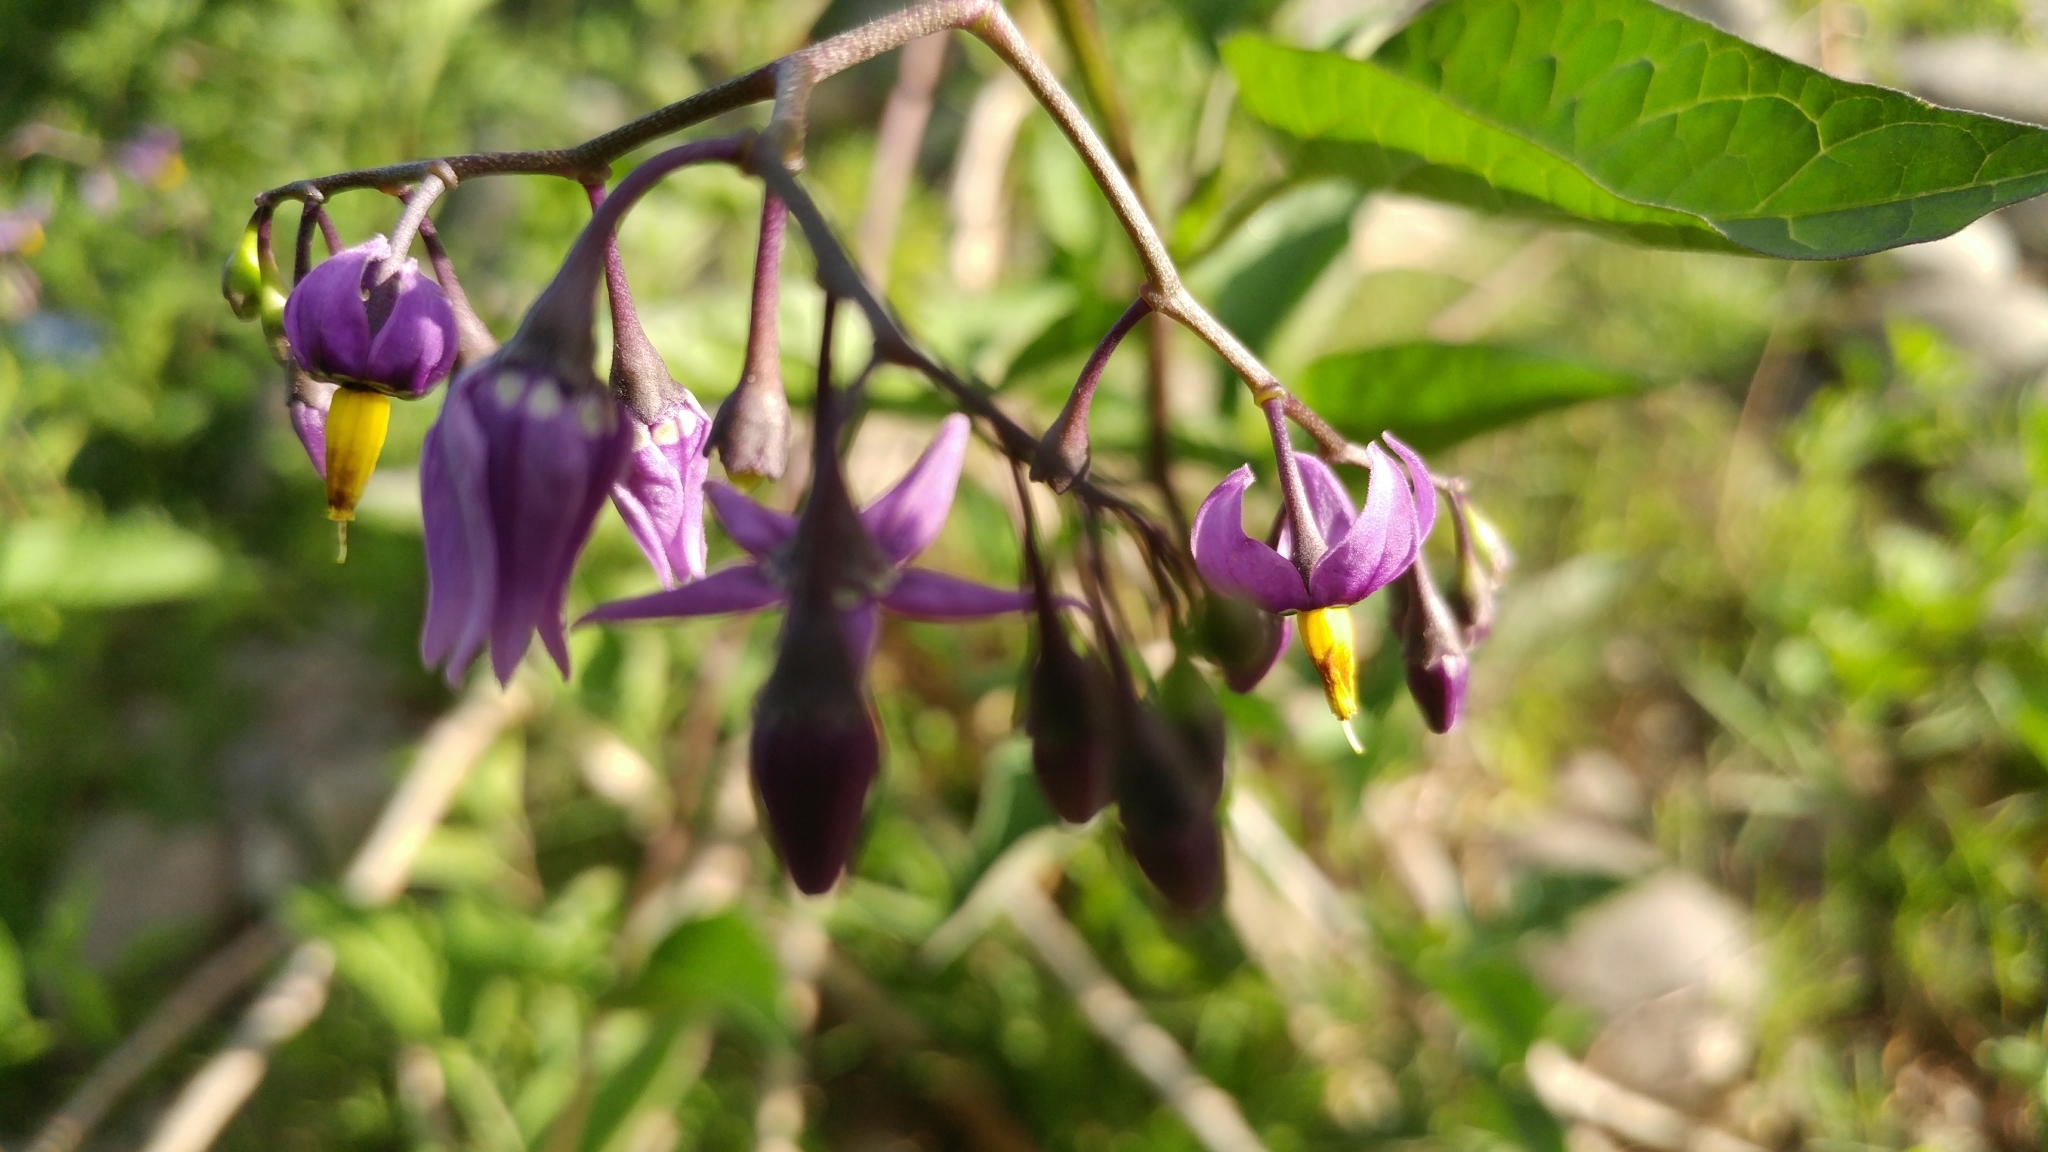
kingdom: Plantae
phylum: Tracheophyta
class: Magnoliopsida
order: Solanales
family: Solanaceae
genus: Solanum
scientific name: Solanum dulcamara
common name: Climbing nightshade
